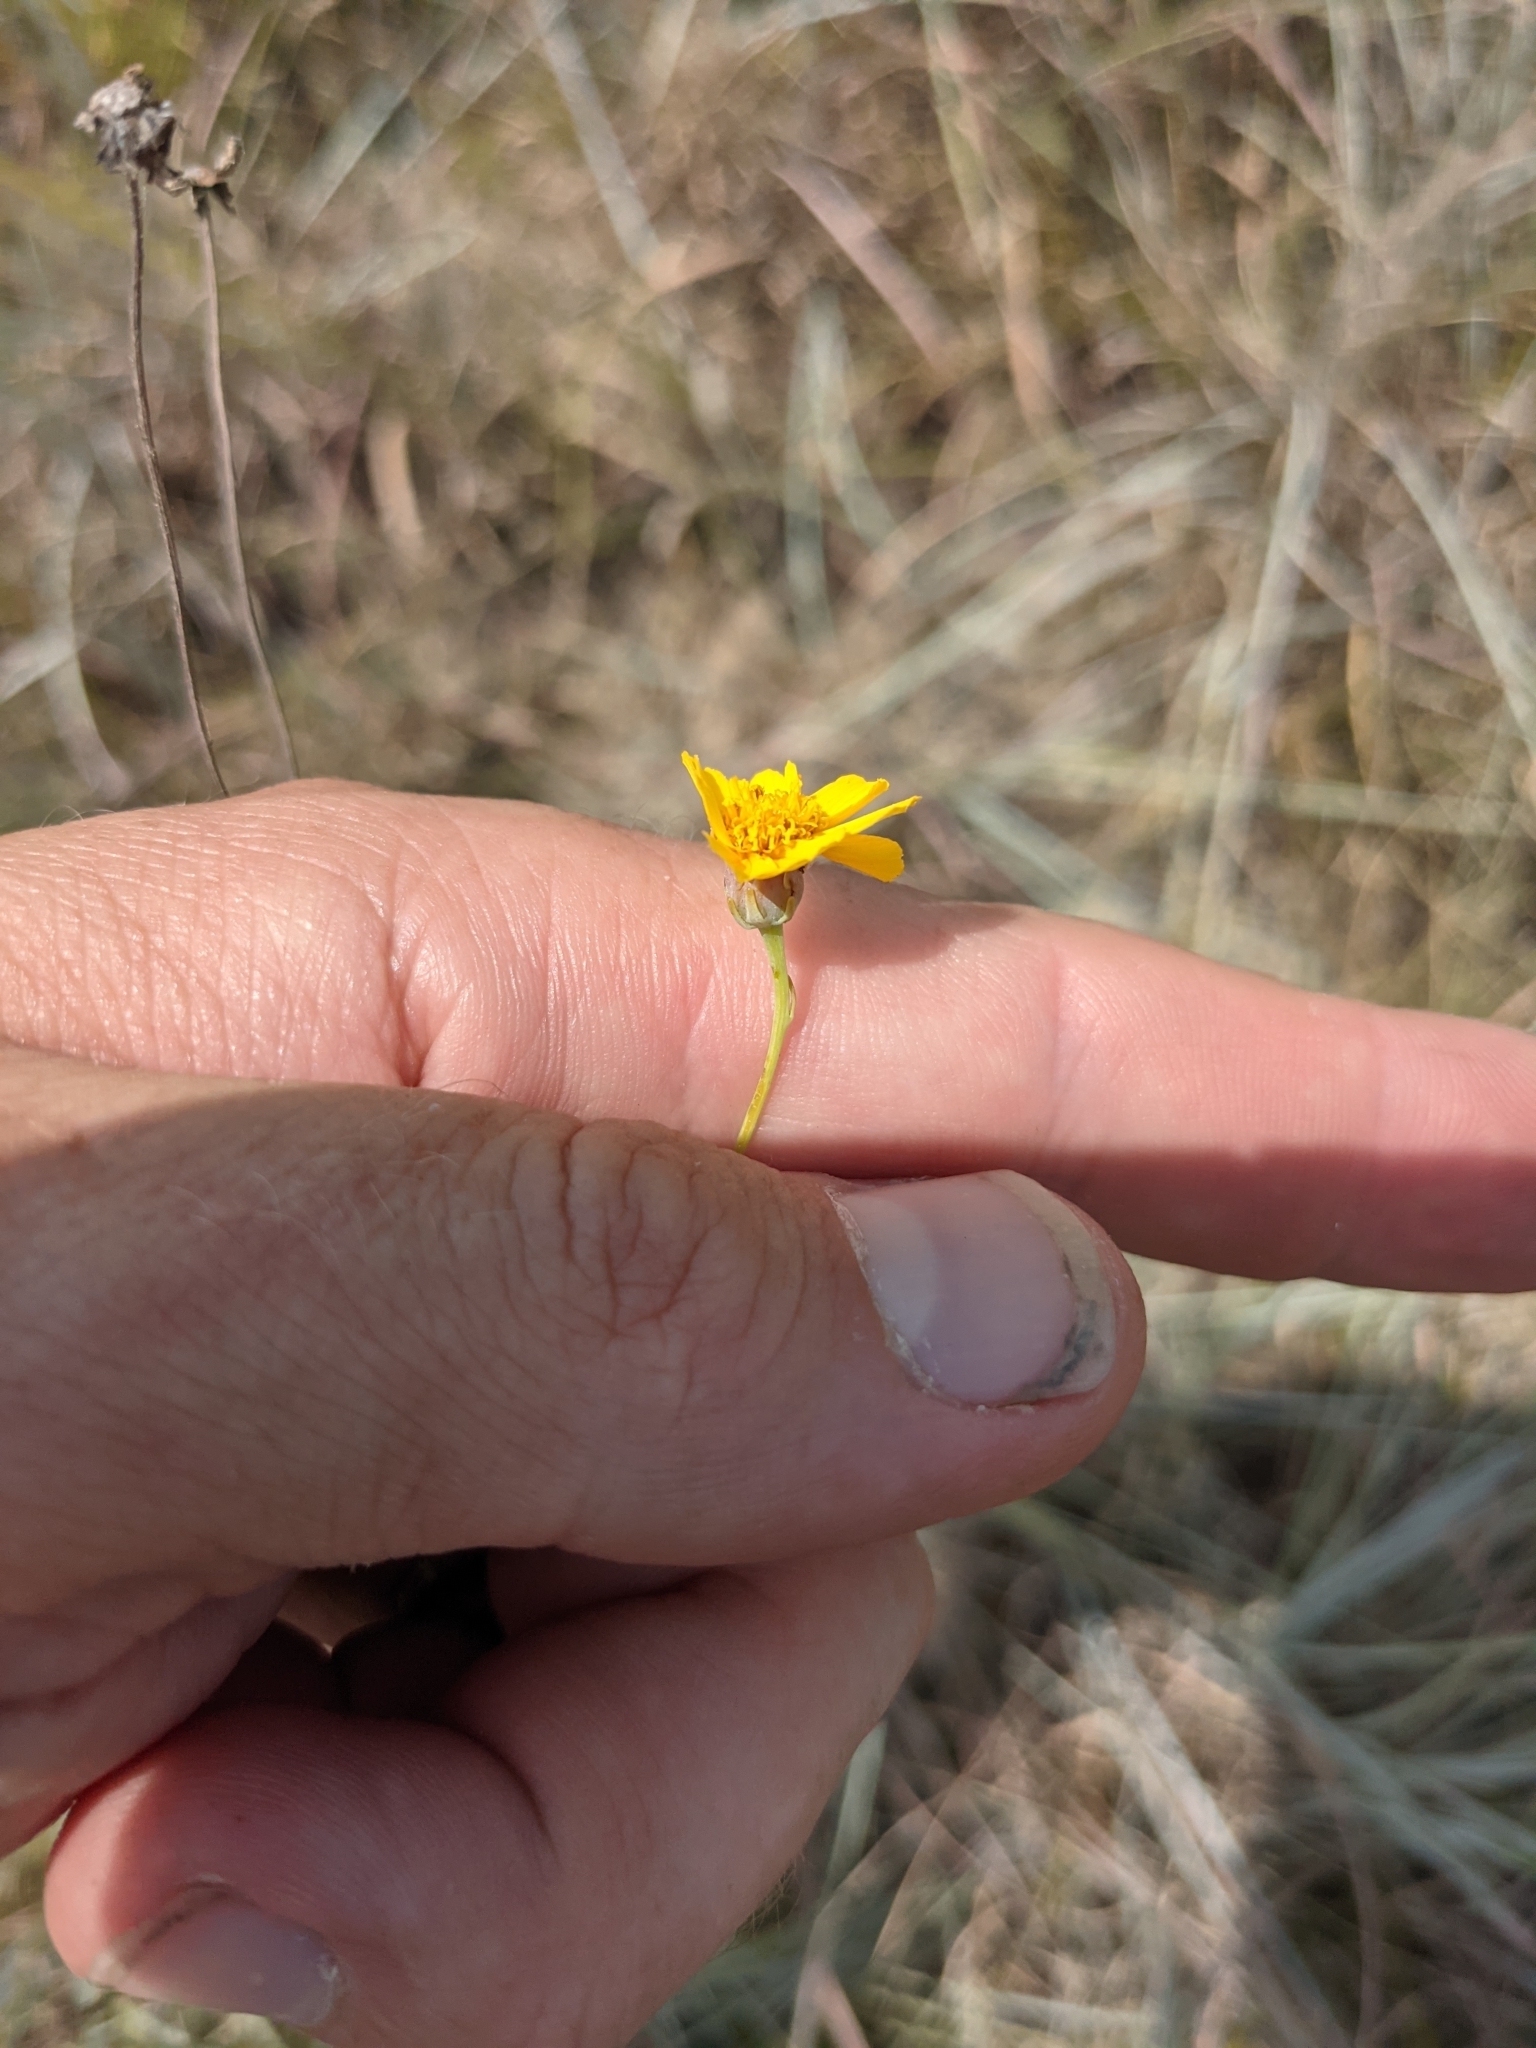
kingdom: Plantae
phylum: Tracheophyta
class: Magnoliopsida
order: Asterales
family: Asteraceae
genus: Thelesperma
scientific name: Thelesperma simplicifolium
